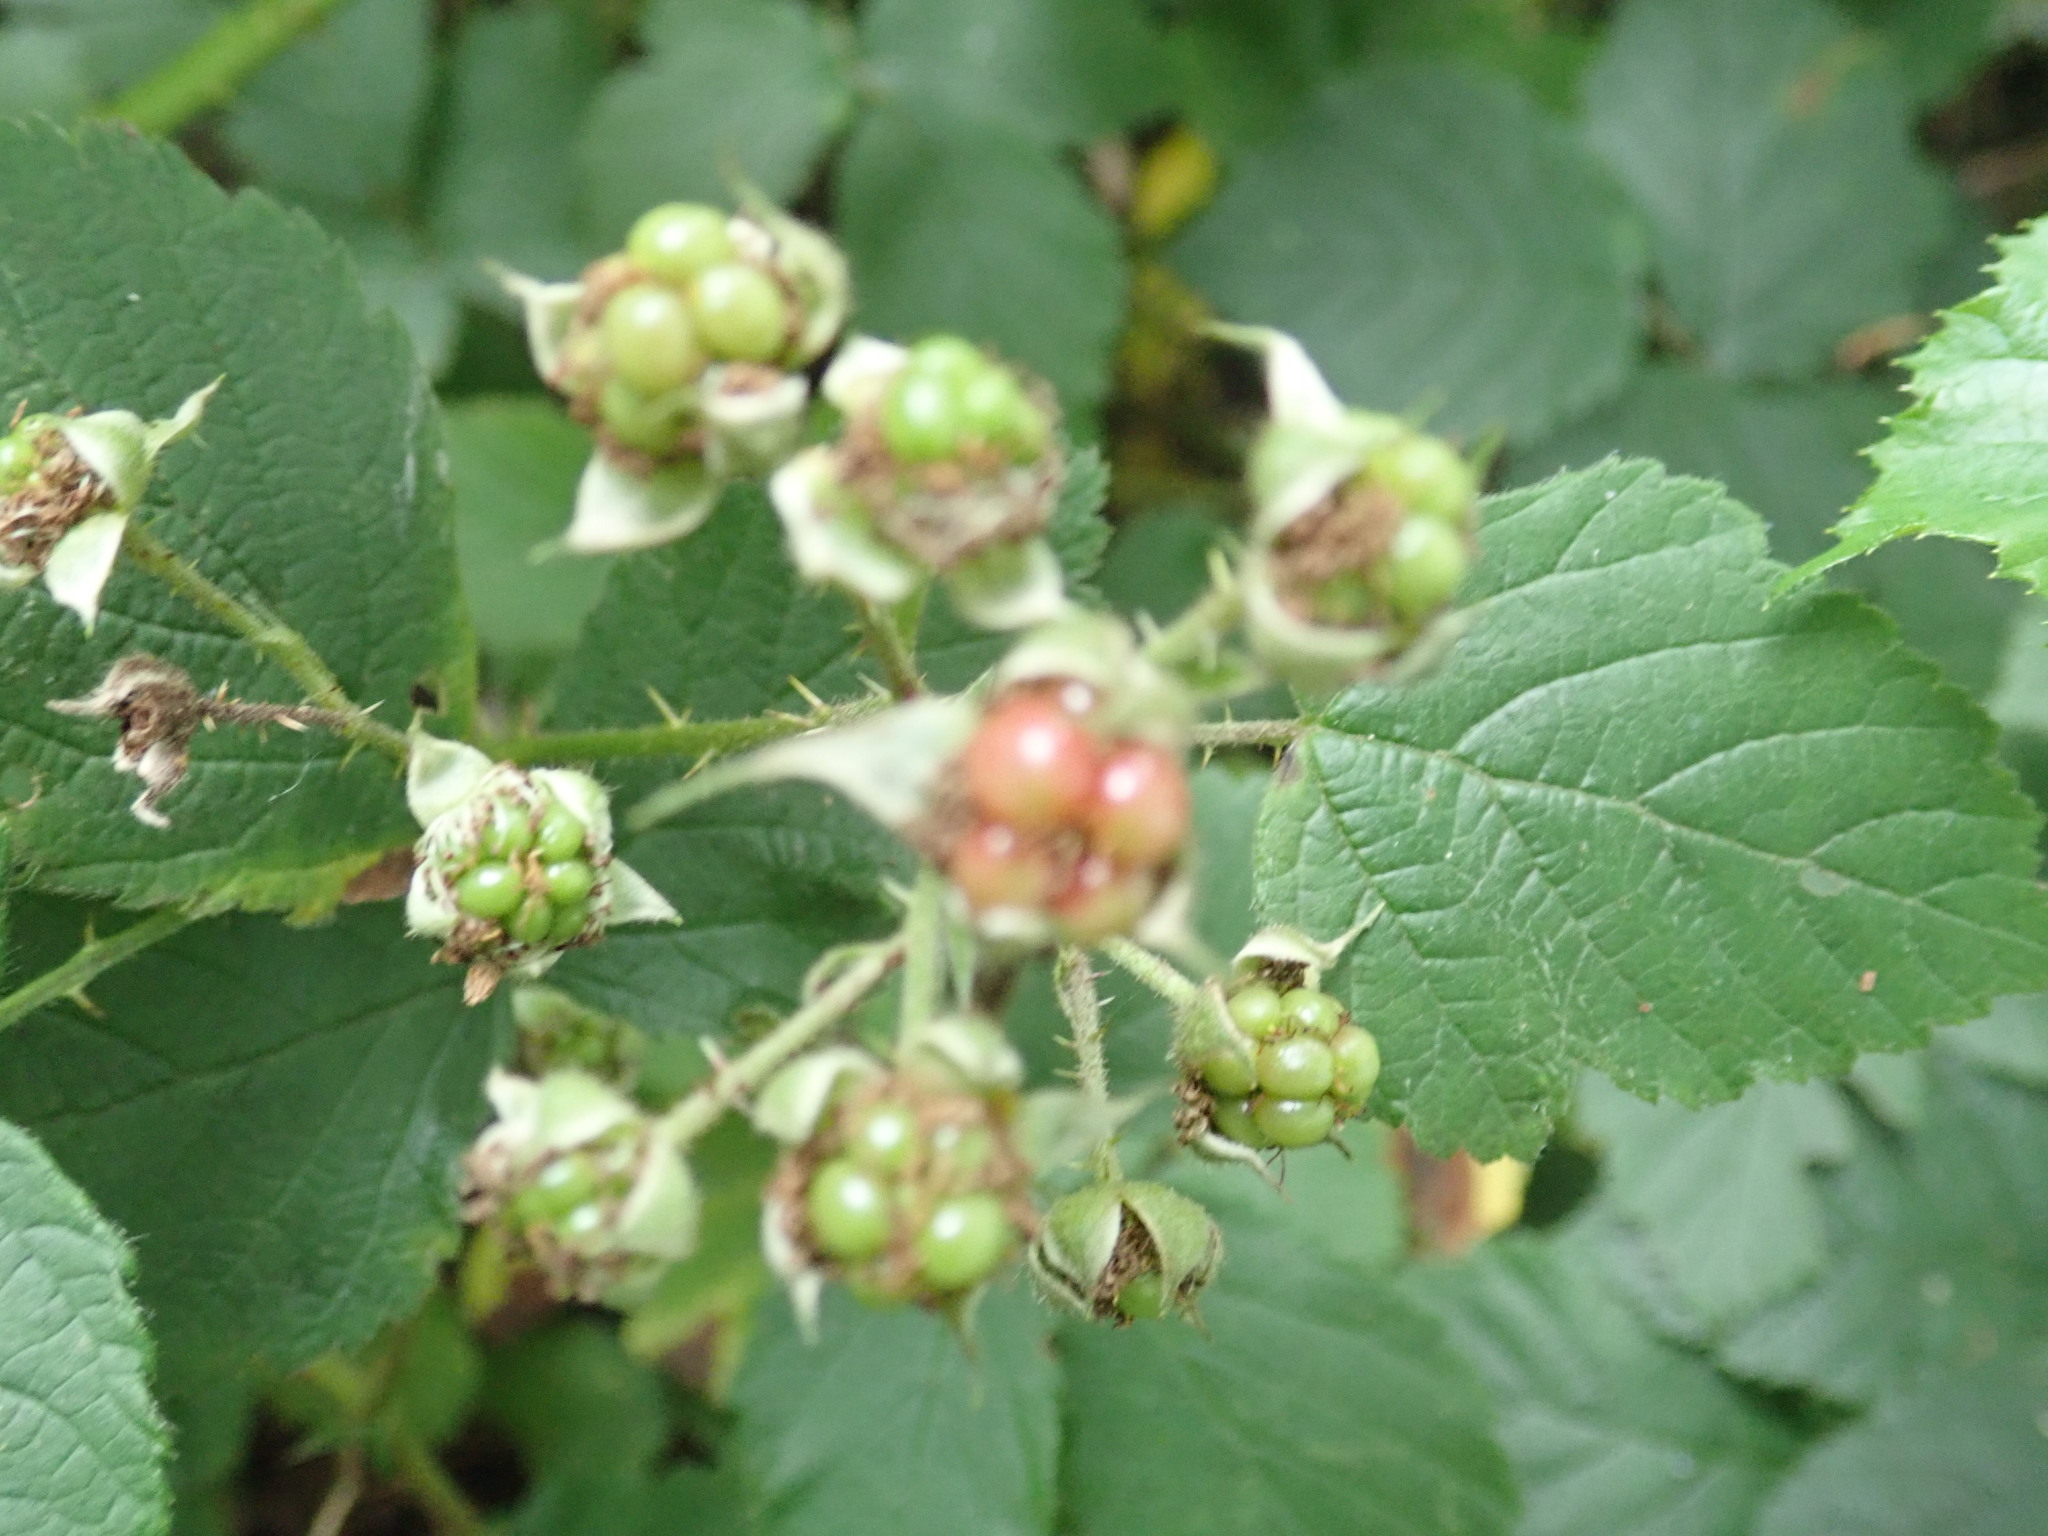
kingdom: Plantae
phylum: Tracheophyta
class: Magnoliopsida
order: Rosales
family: Rosaceae
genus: Rubus
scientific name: Rubus
